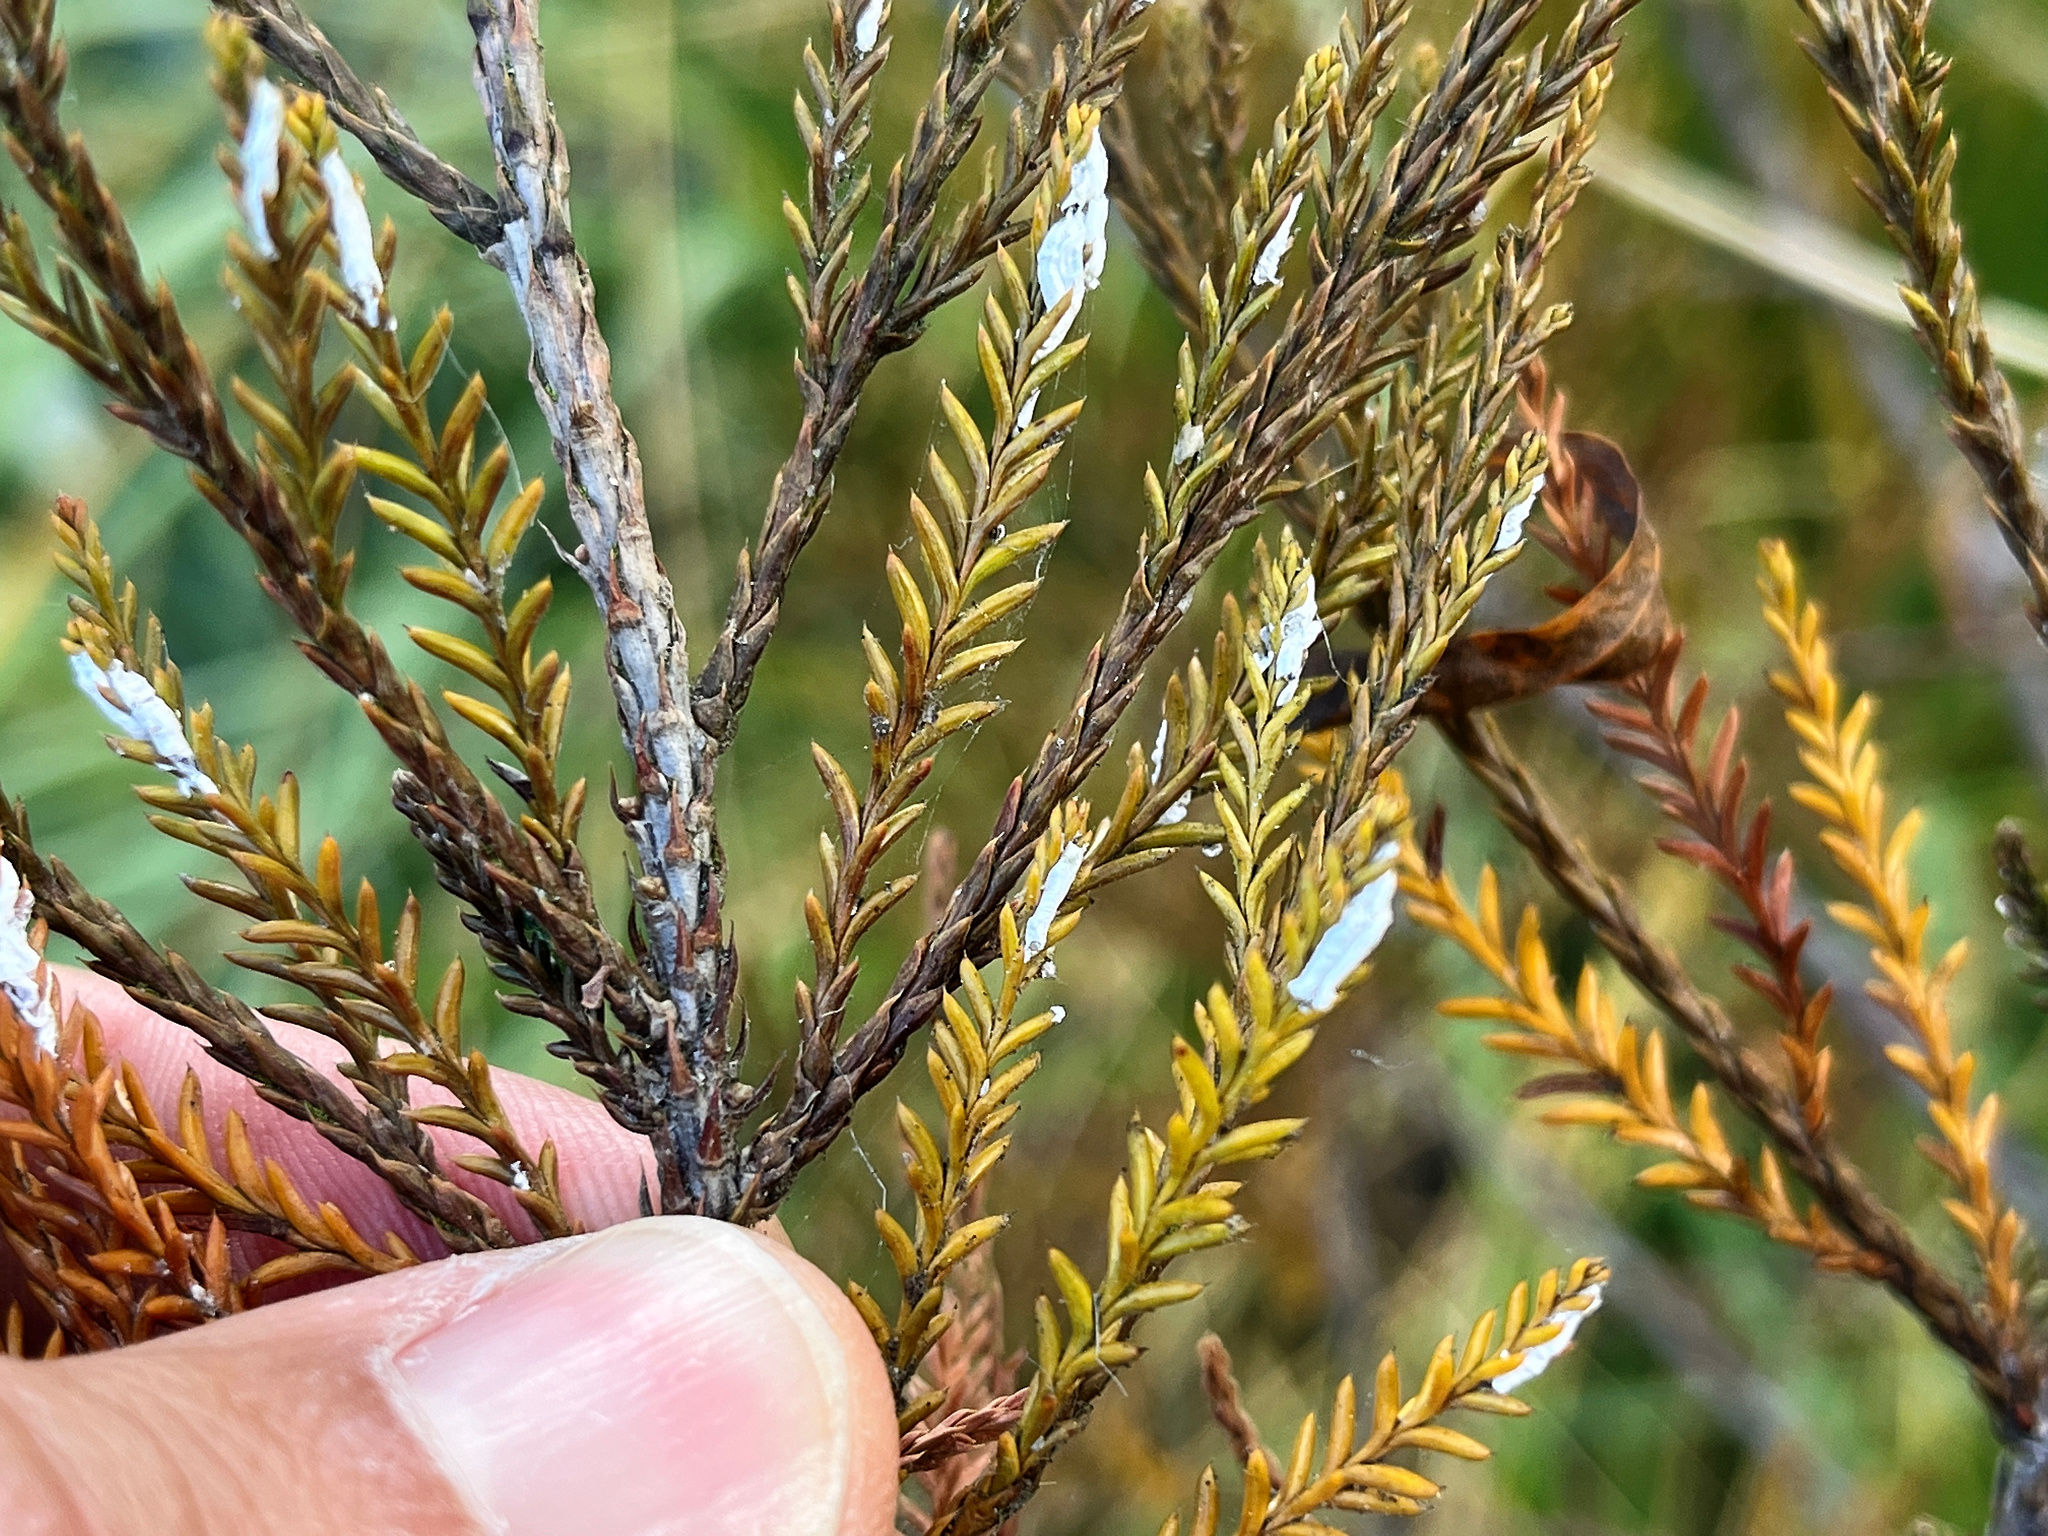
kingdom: Animalia
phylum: Arthropoda
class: Insecta
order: Hemiptera
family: Pseudococcidae
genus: Paraferrisia
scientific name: Paraferrisia podocarpi
